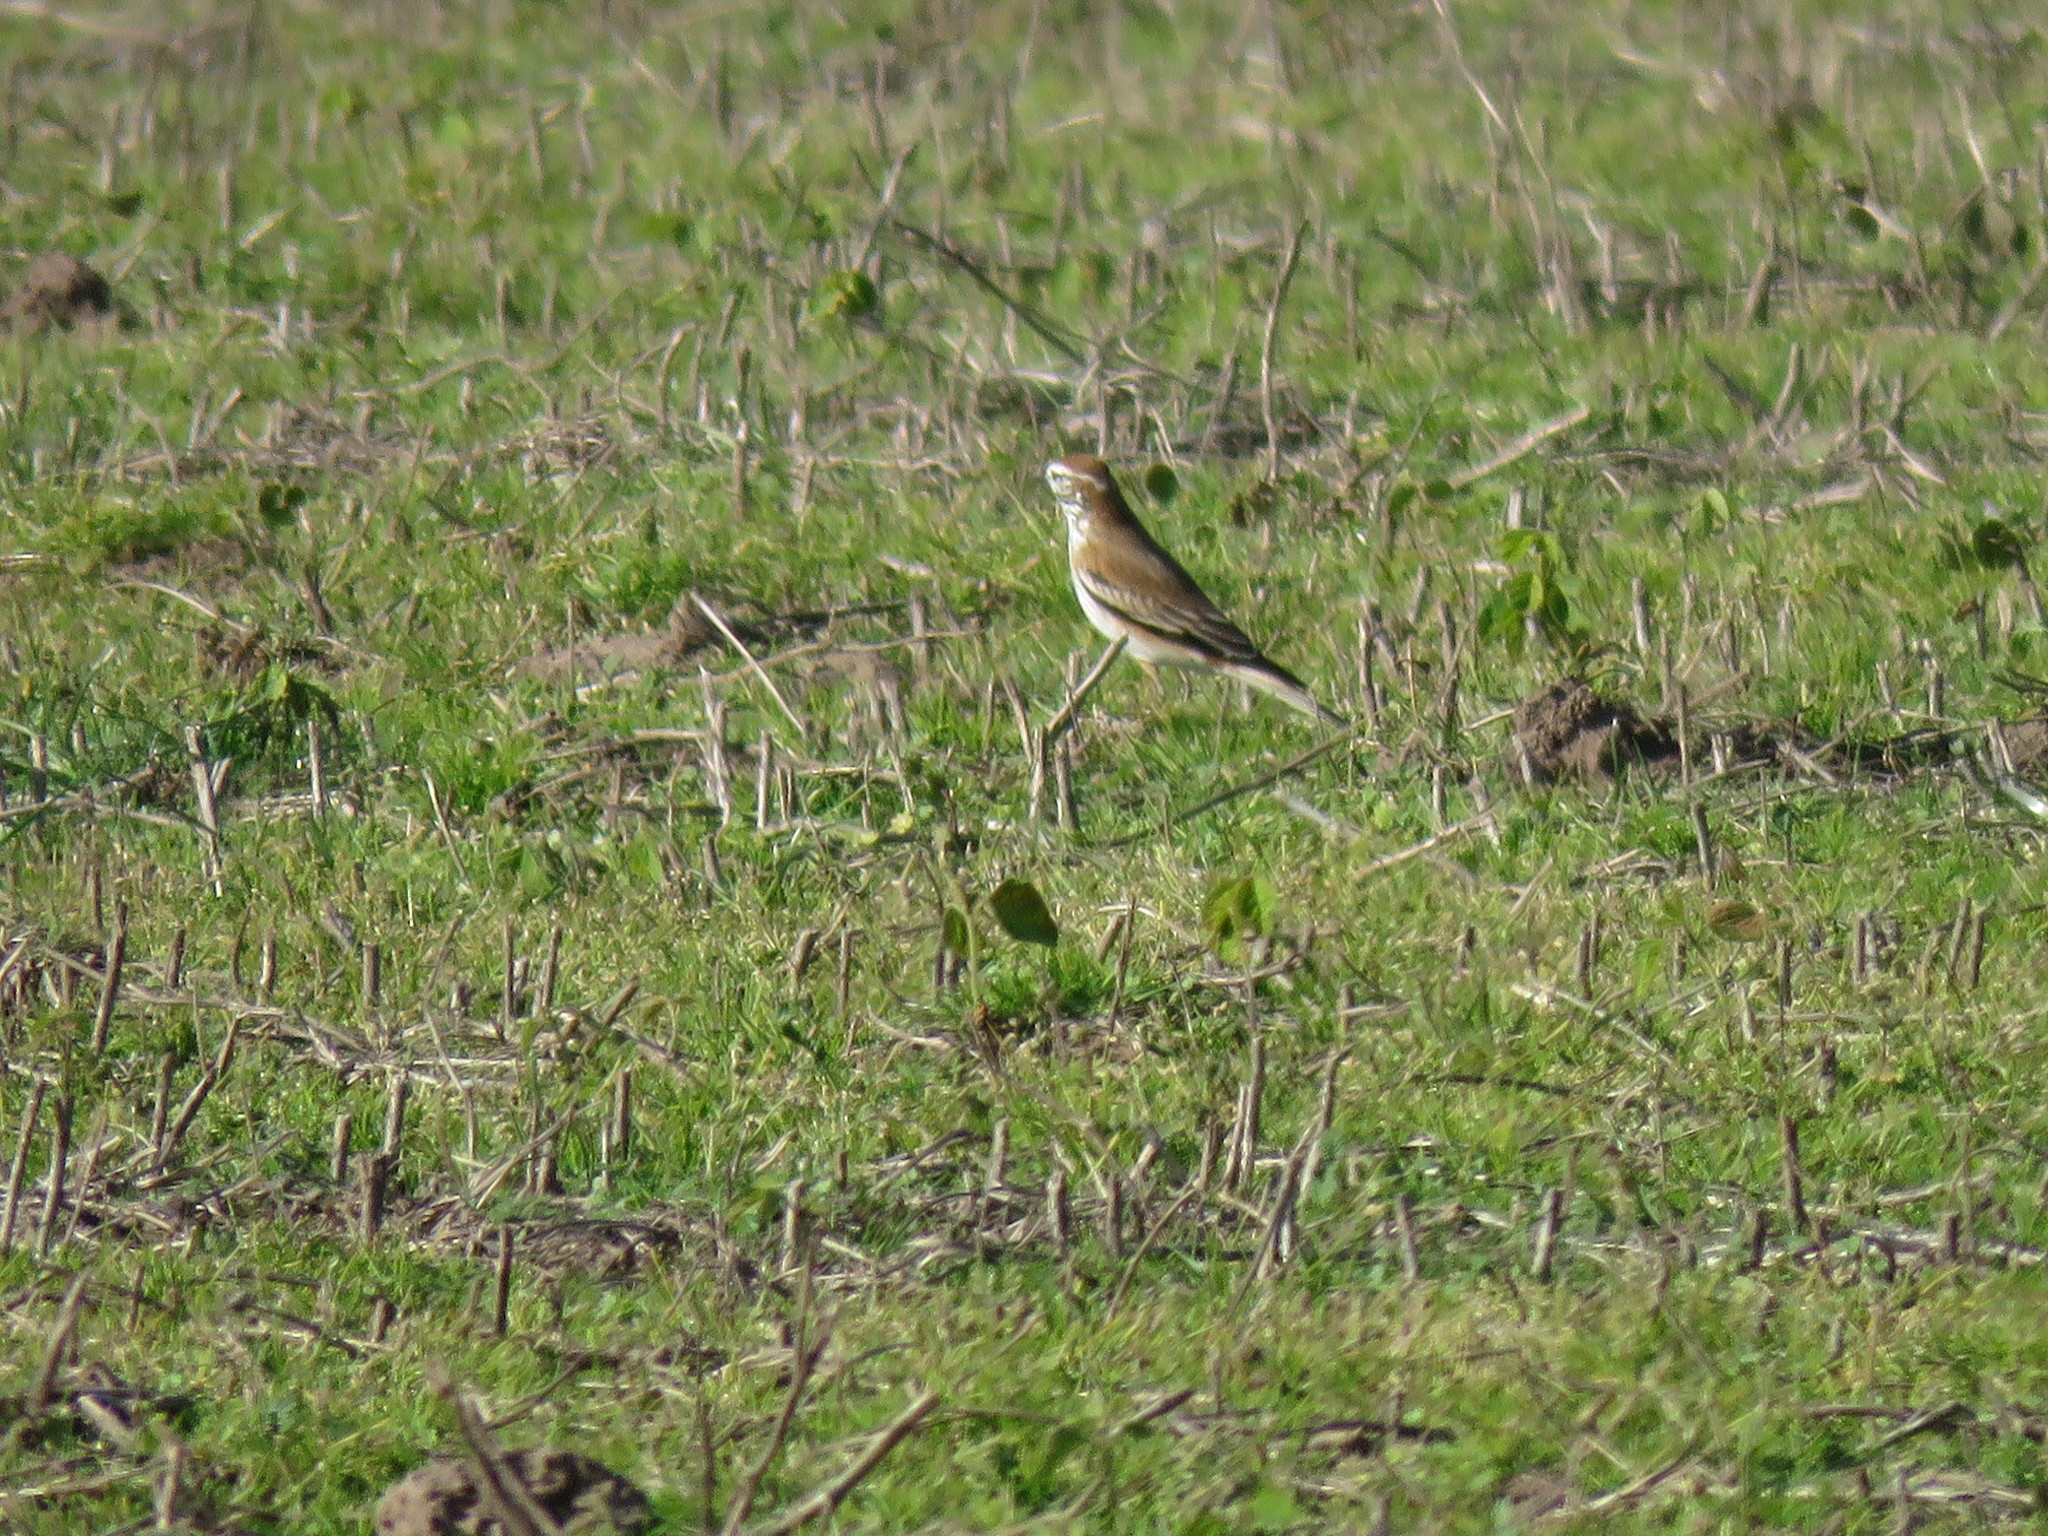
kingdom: Animalia
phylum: Chordata
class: Aves
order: Passeriformes
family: Tyrannidae
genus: Xolmis
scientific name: Xolmis rubetra
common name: Rusty-backed monjita
